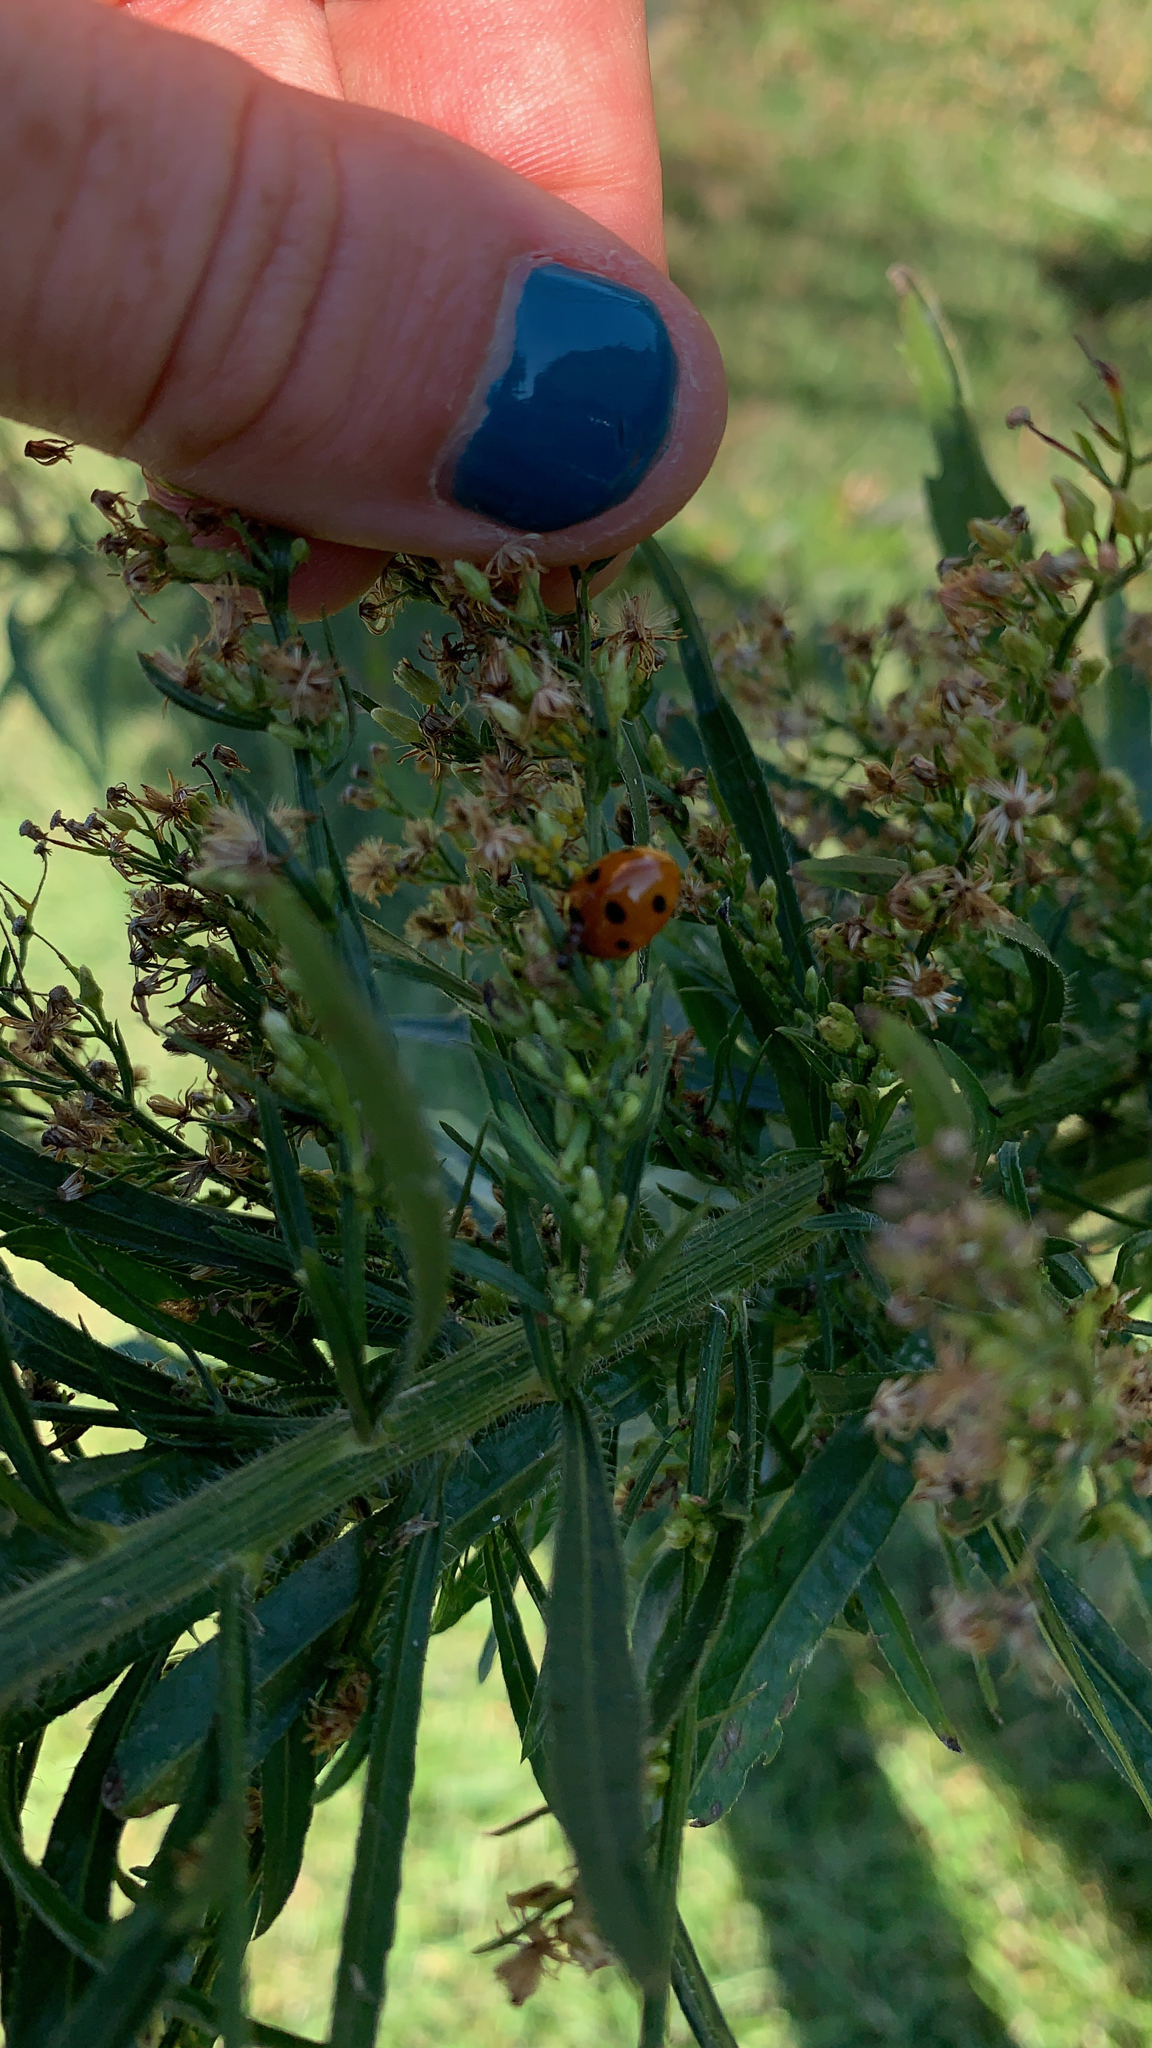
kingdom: Animalia
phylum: Arthropoda
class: Insecta
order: Coleoptera
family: Coccinellidae
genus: Coccinella
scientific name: Coccinella septempunctata
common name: Sevenspotted lady beetle
